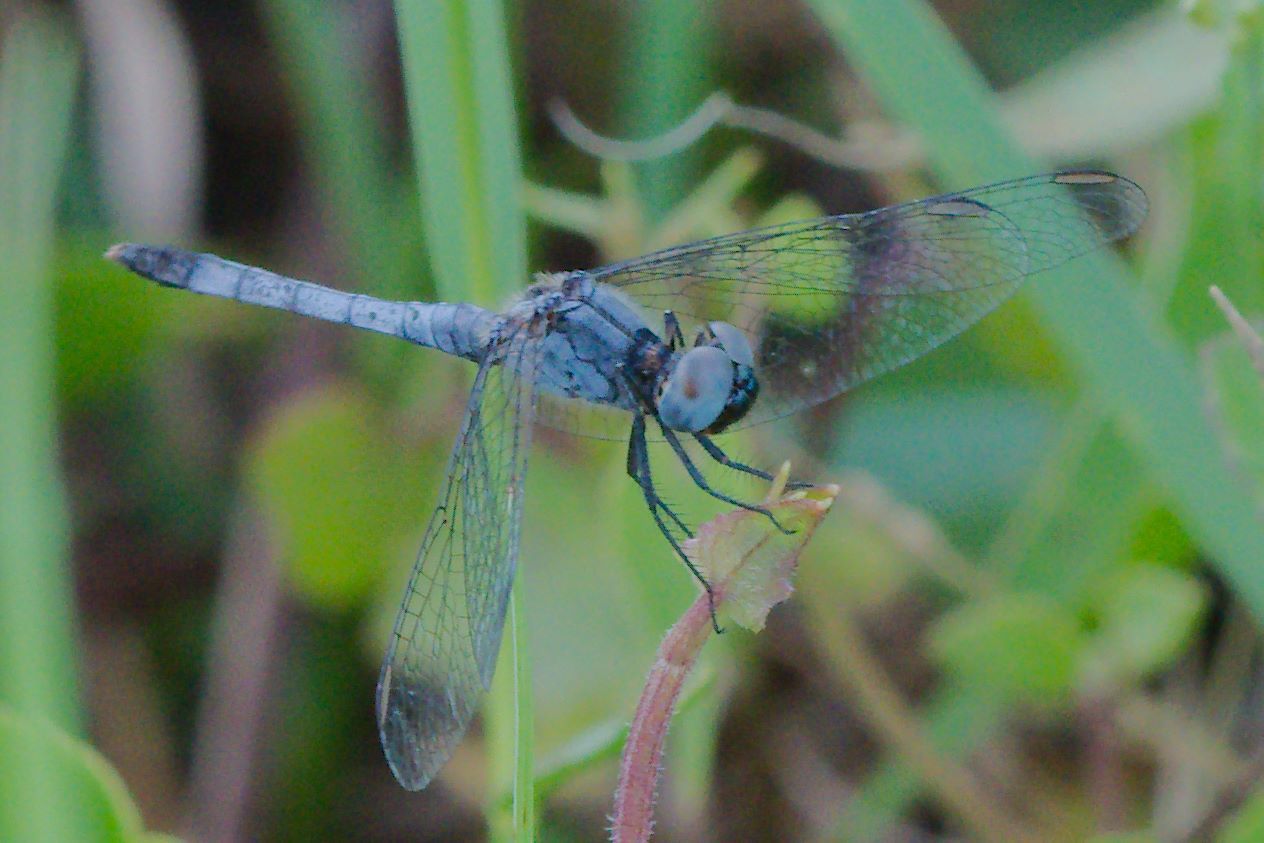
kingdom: Animalia
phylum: Arthropoda
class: Insecta
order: Odonata
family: Libellulidae
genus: Erythrodiplax
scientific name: Erythrodiplax minuscula
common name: Little blue dragonlet
